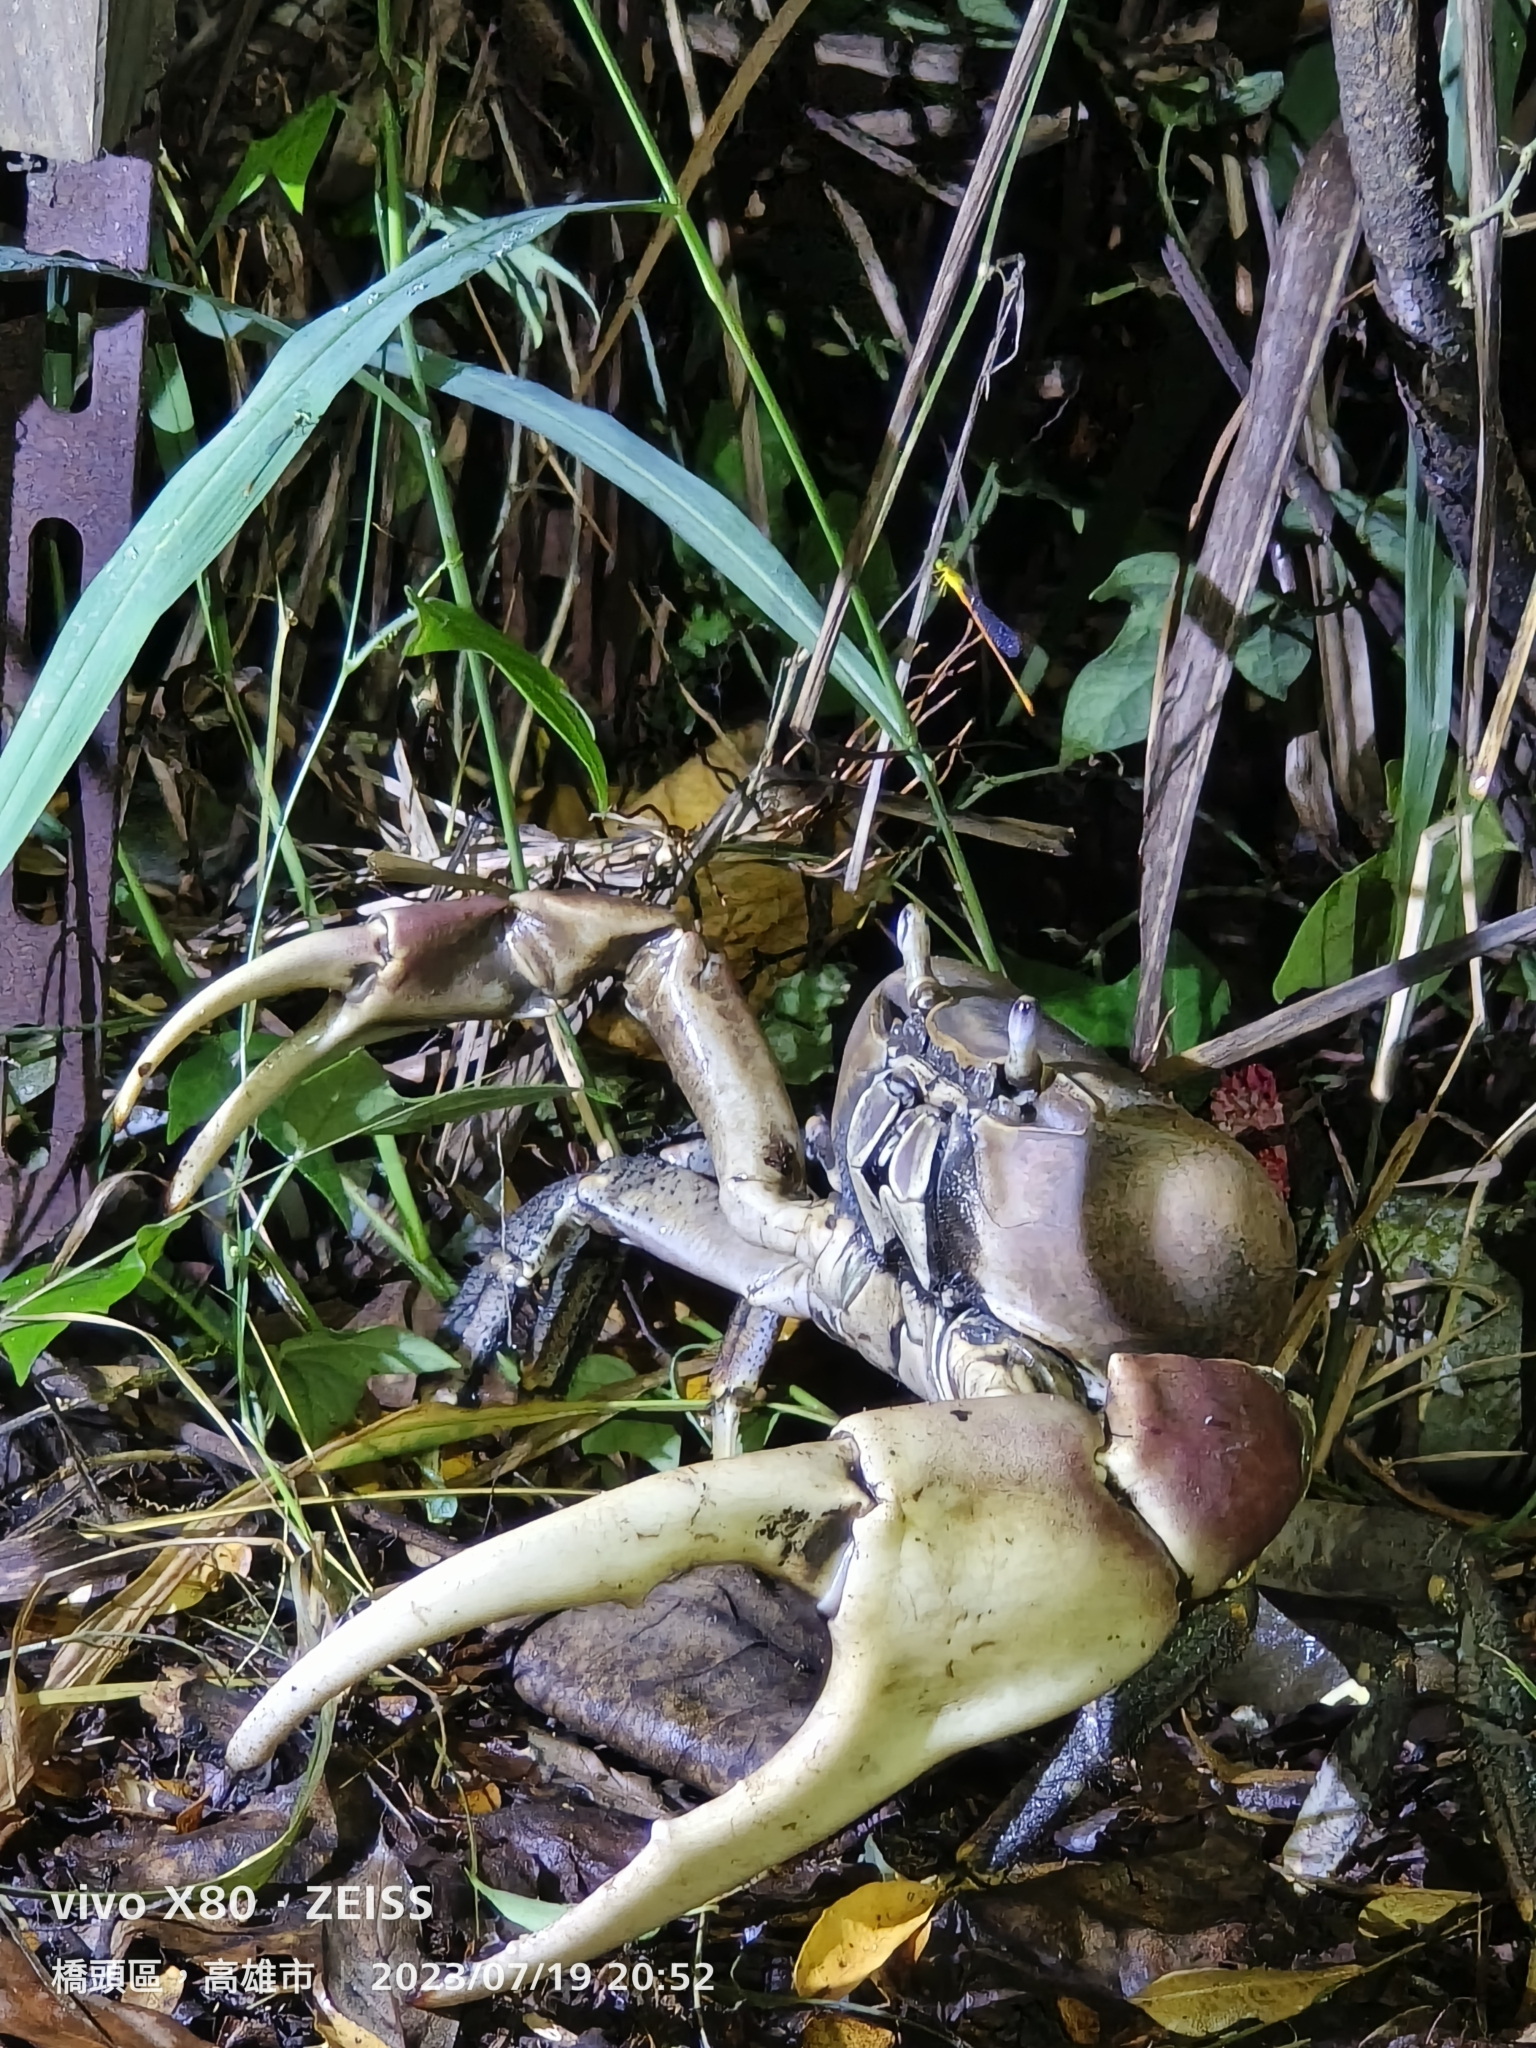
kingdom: Animalia
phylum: Arthropoda
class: Malacostraca
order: Decapoda
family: Gecarcinidae
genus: Cardisoma
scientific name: Cardisoma carnifex
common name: Brown land crab
